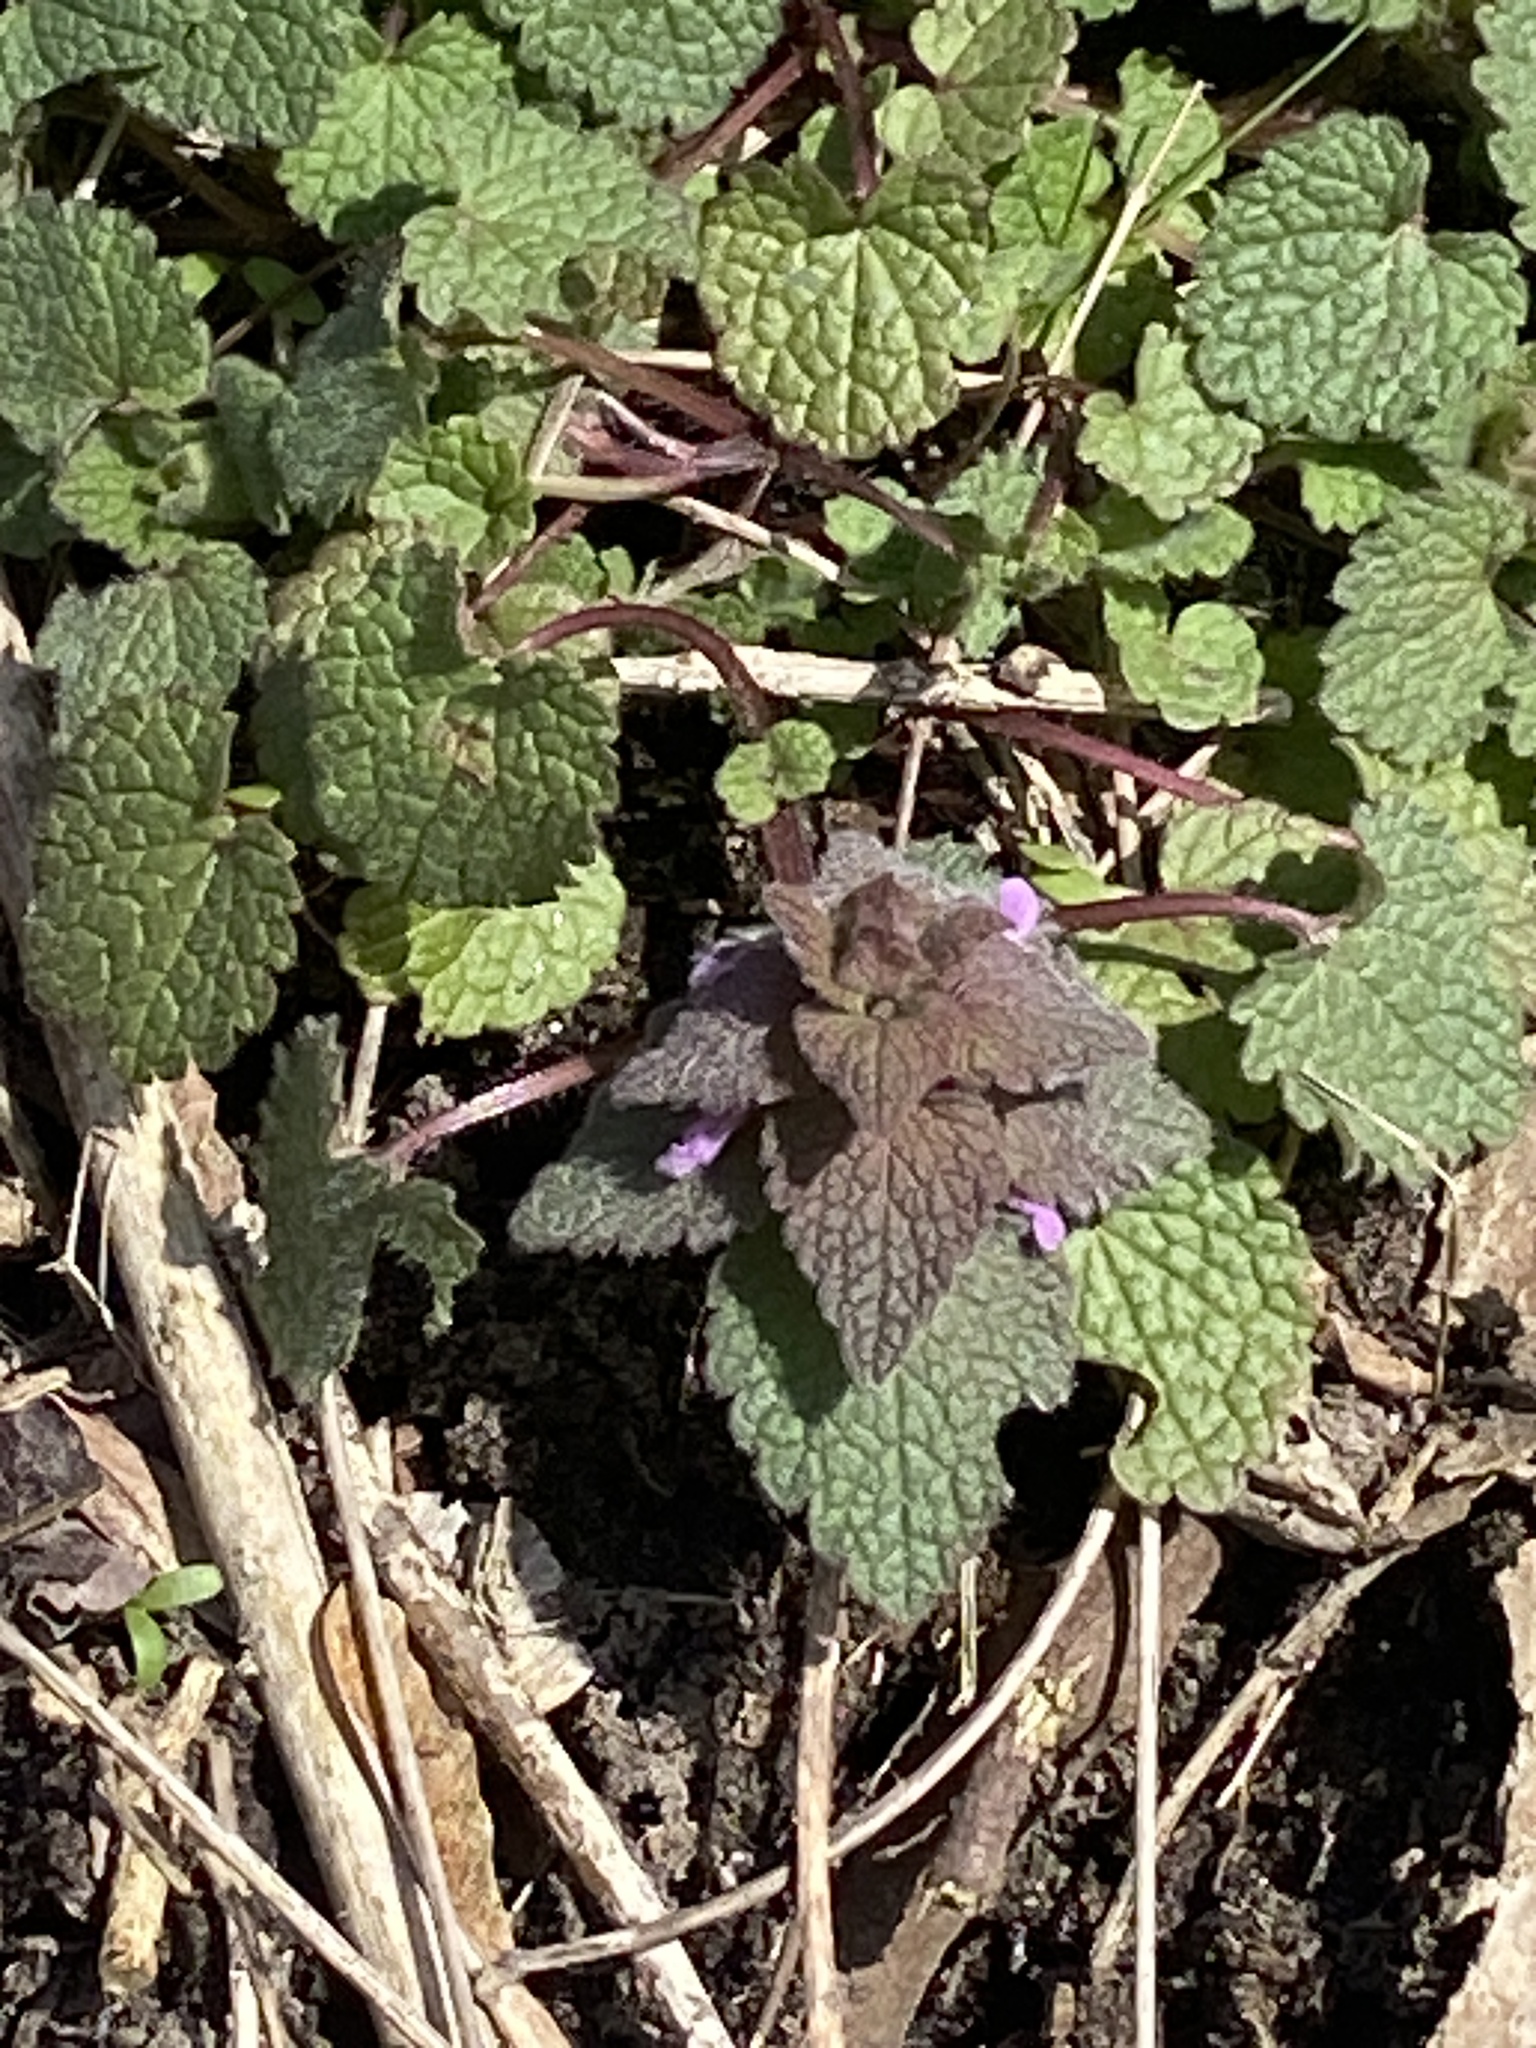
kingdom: Plantae
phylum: Tracheophyta
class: Magnoliopsida
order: Lamiales
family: Lamiaceae
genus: Lamium
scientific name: Lamium purpureum
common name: Red dead-nettle
